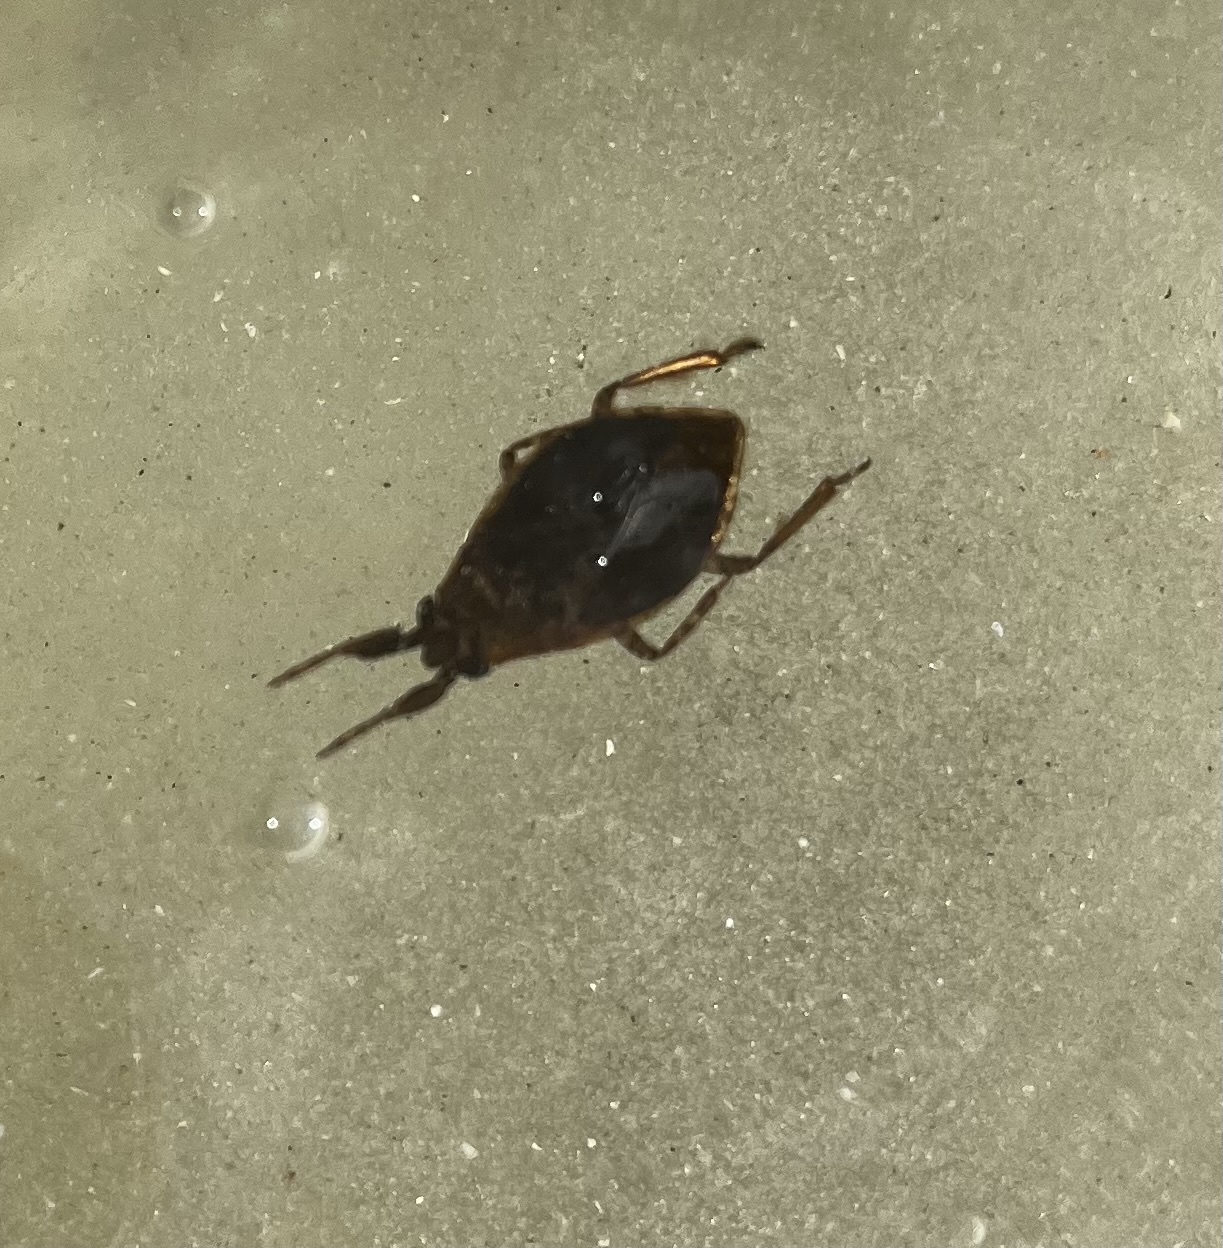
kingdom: Animalia
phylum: Arthropoda
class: Insecta
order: Hemiptera
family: Belostomatidae
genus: Belostoma
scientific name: Belostoma
